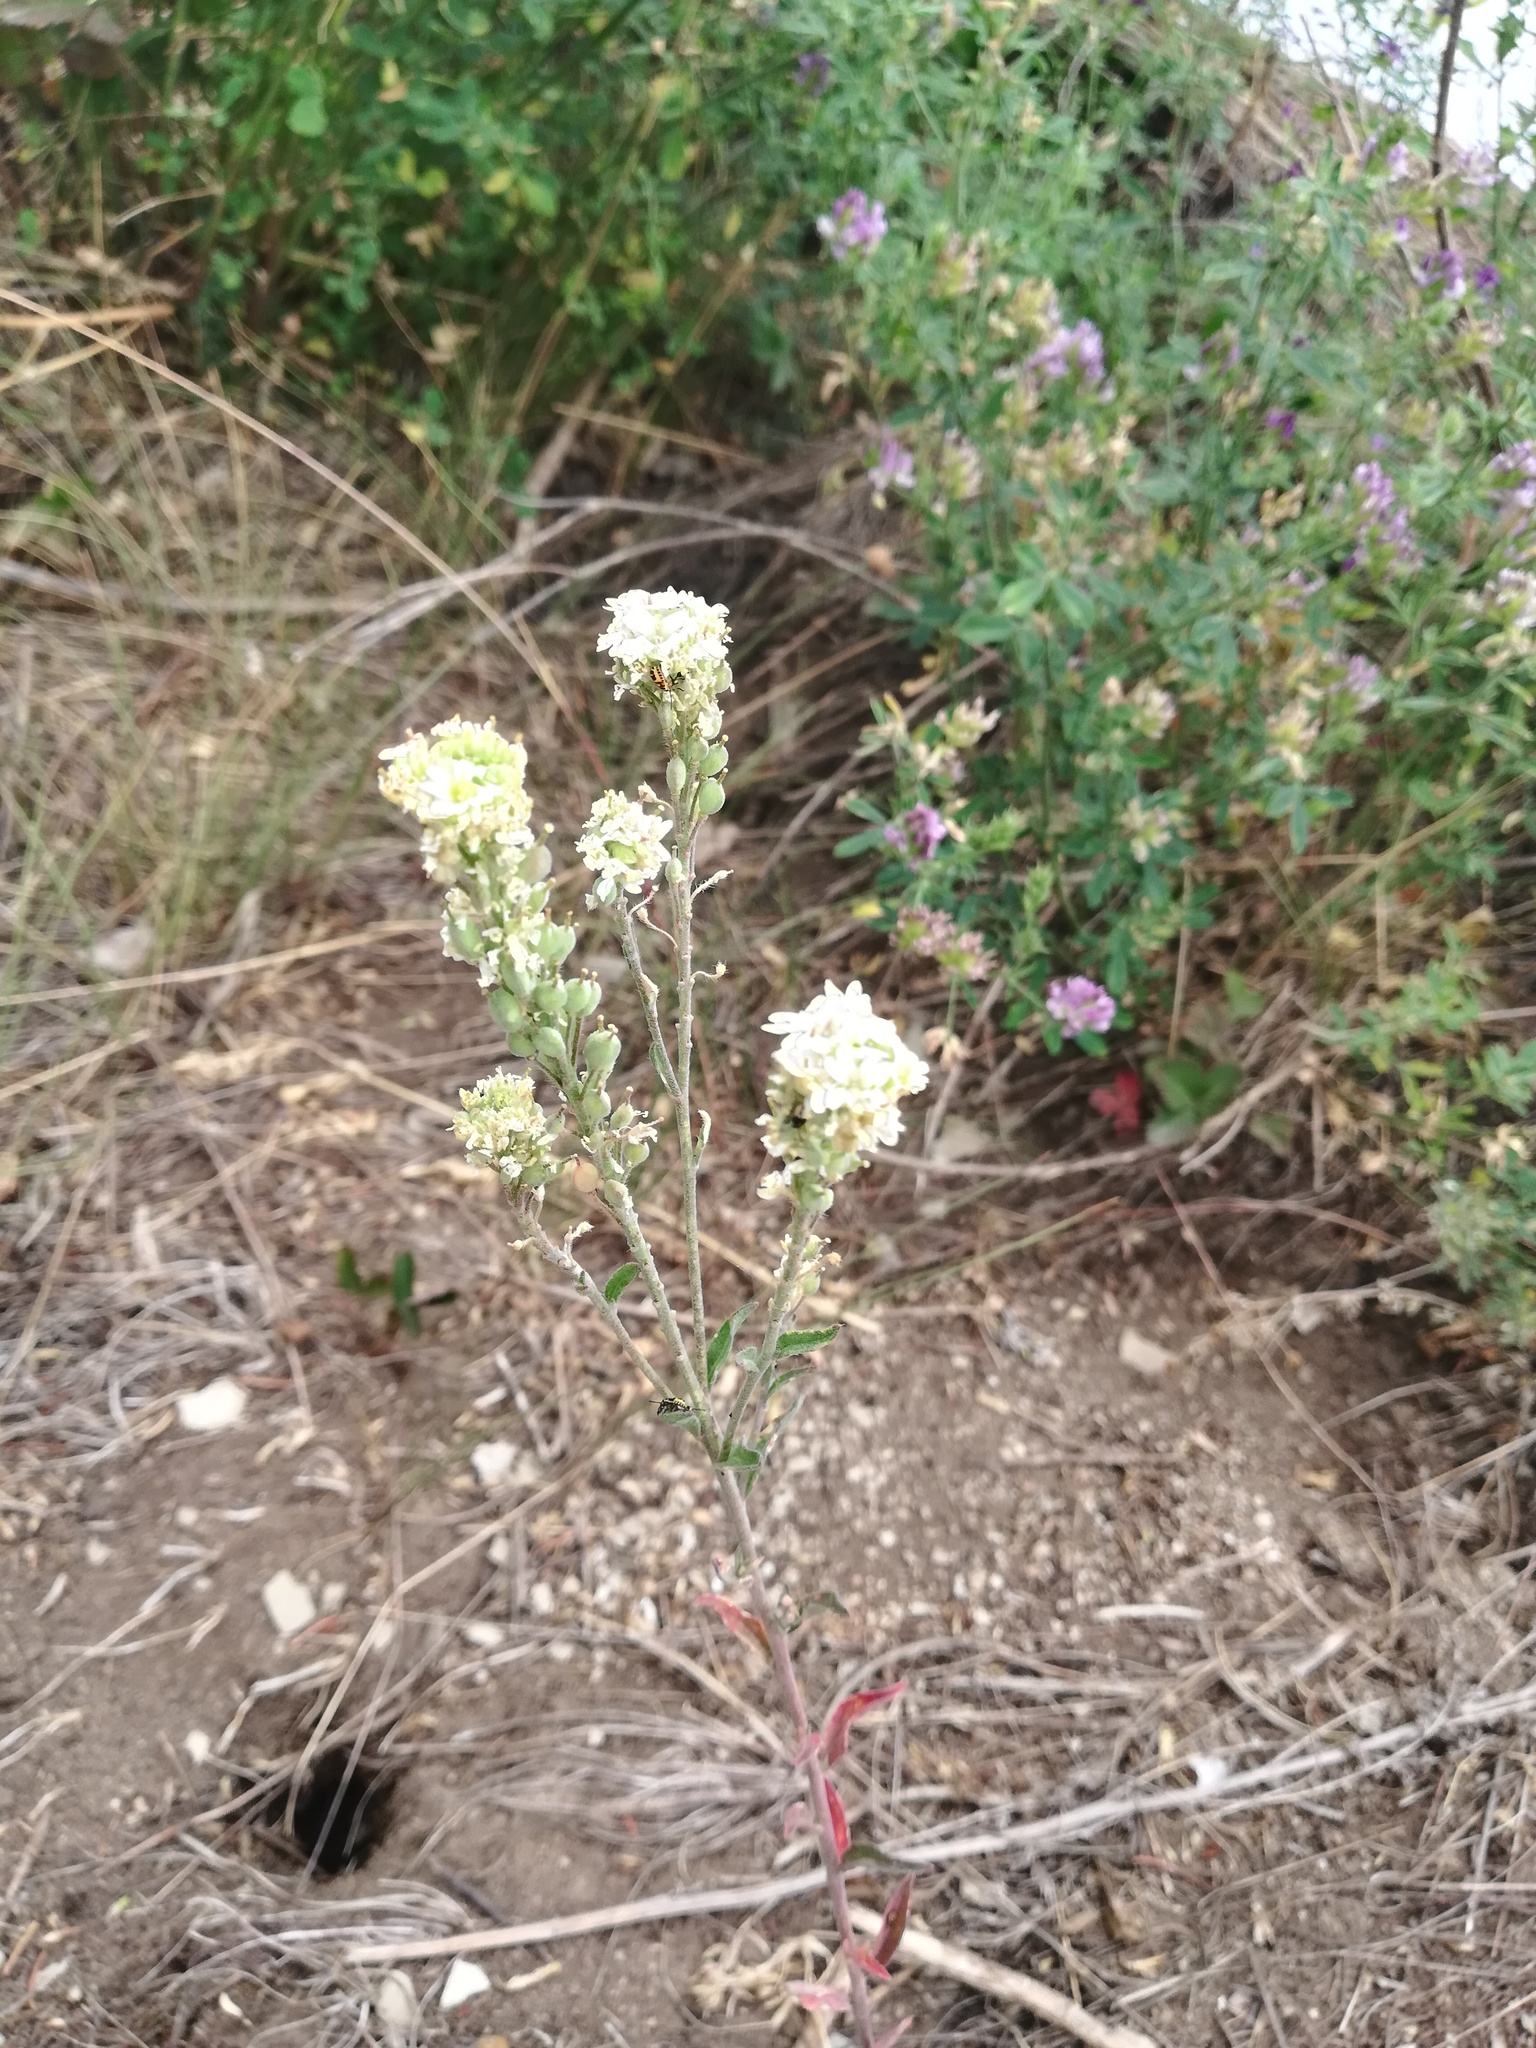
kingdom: Plantae
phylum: Tracheophyta
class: Magnoliopsida
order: Brassicales
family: Brassicaceae
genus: Berteroa
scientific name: Berteroa incana
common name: Hoary alison
